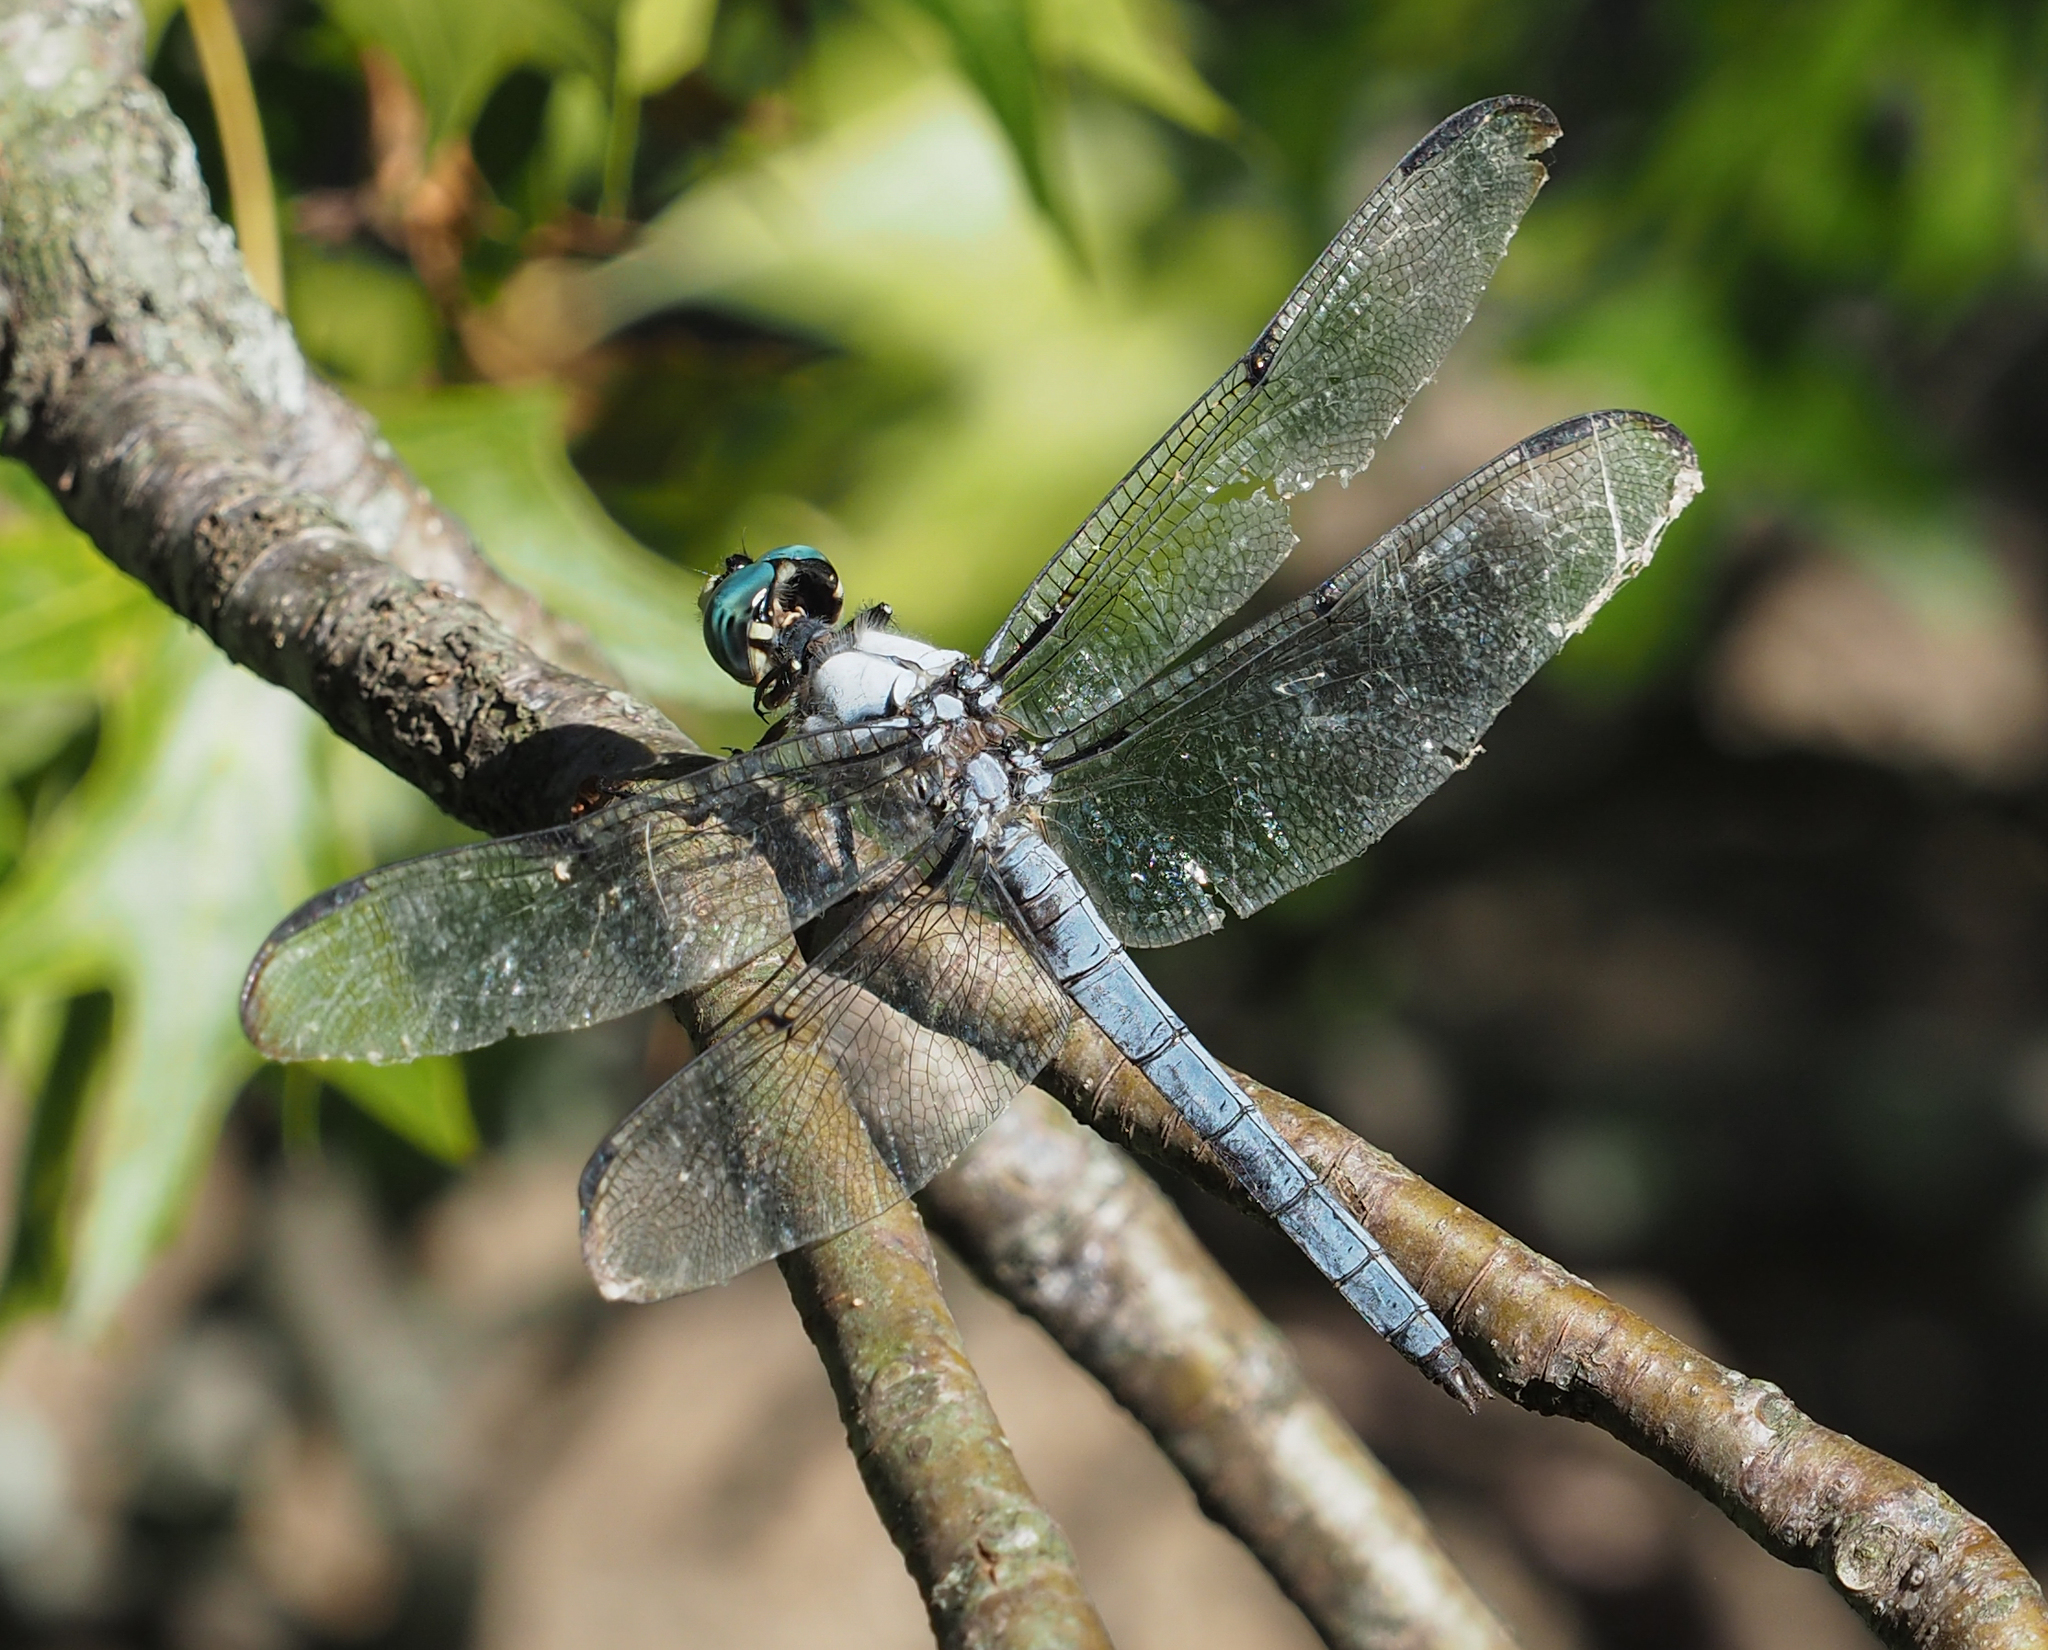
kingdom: Animalia
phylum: Arthropoda
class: Insecta
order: Odonata
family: Libellulidae
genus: Libellula
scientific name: Libellula vibrans
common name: Great blue skimmer
